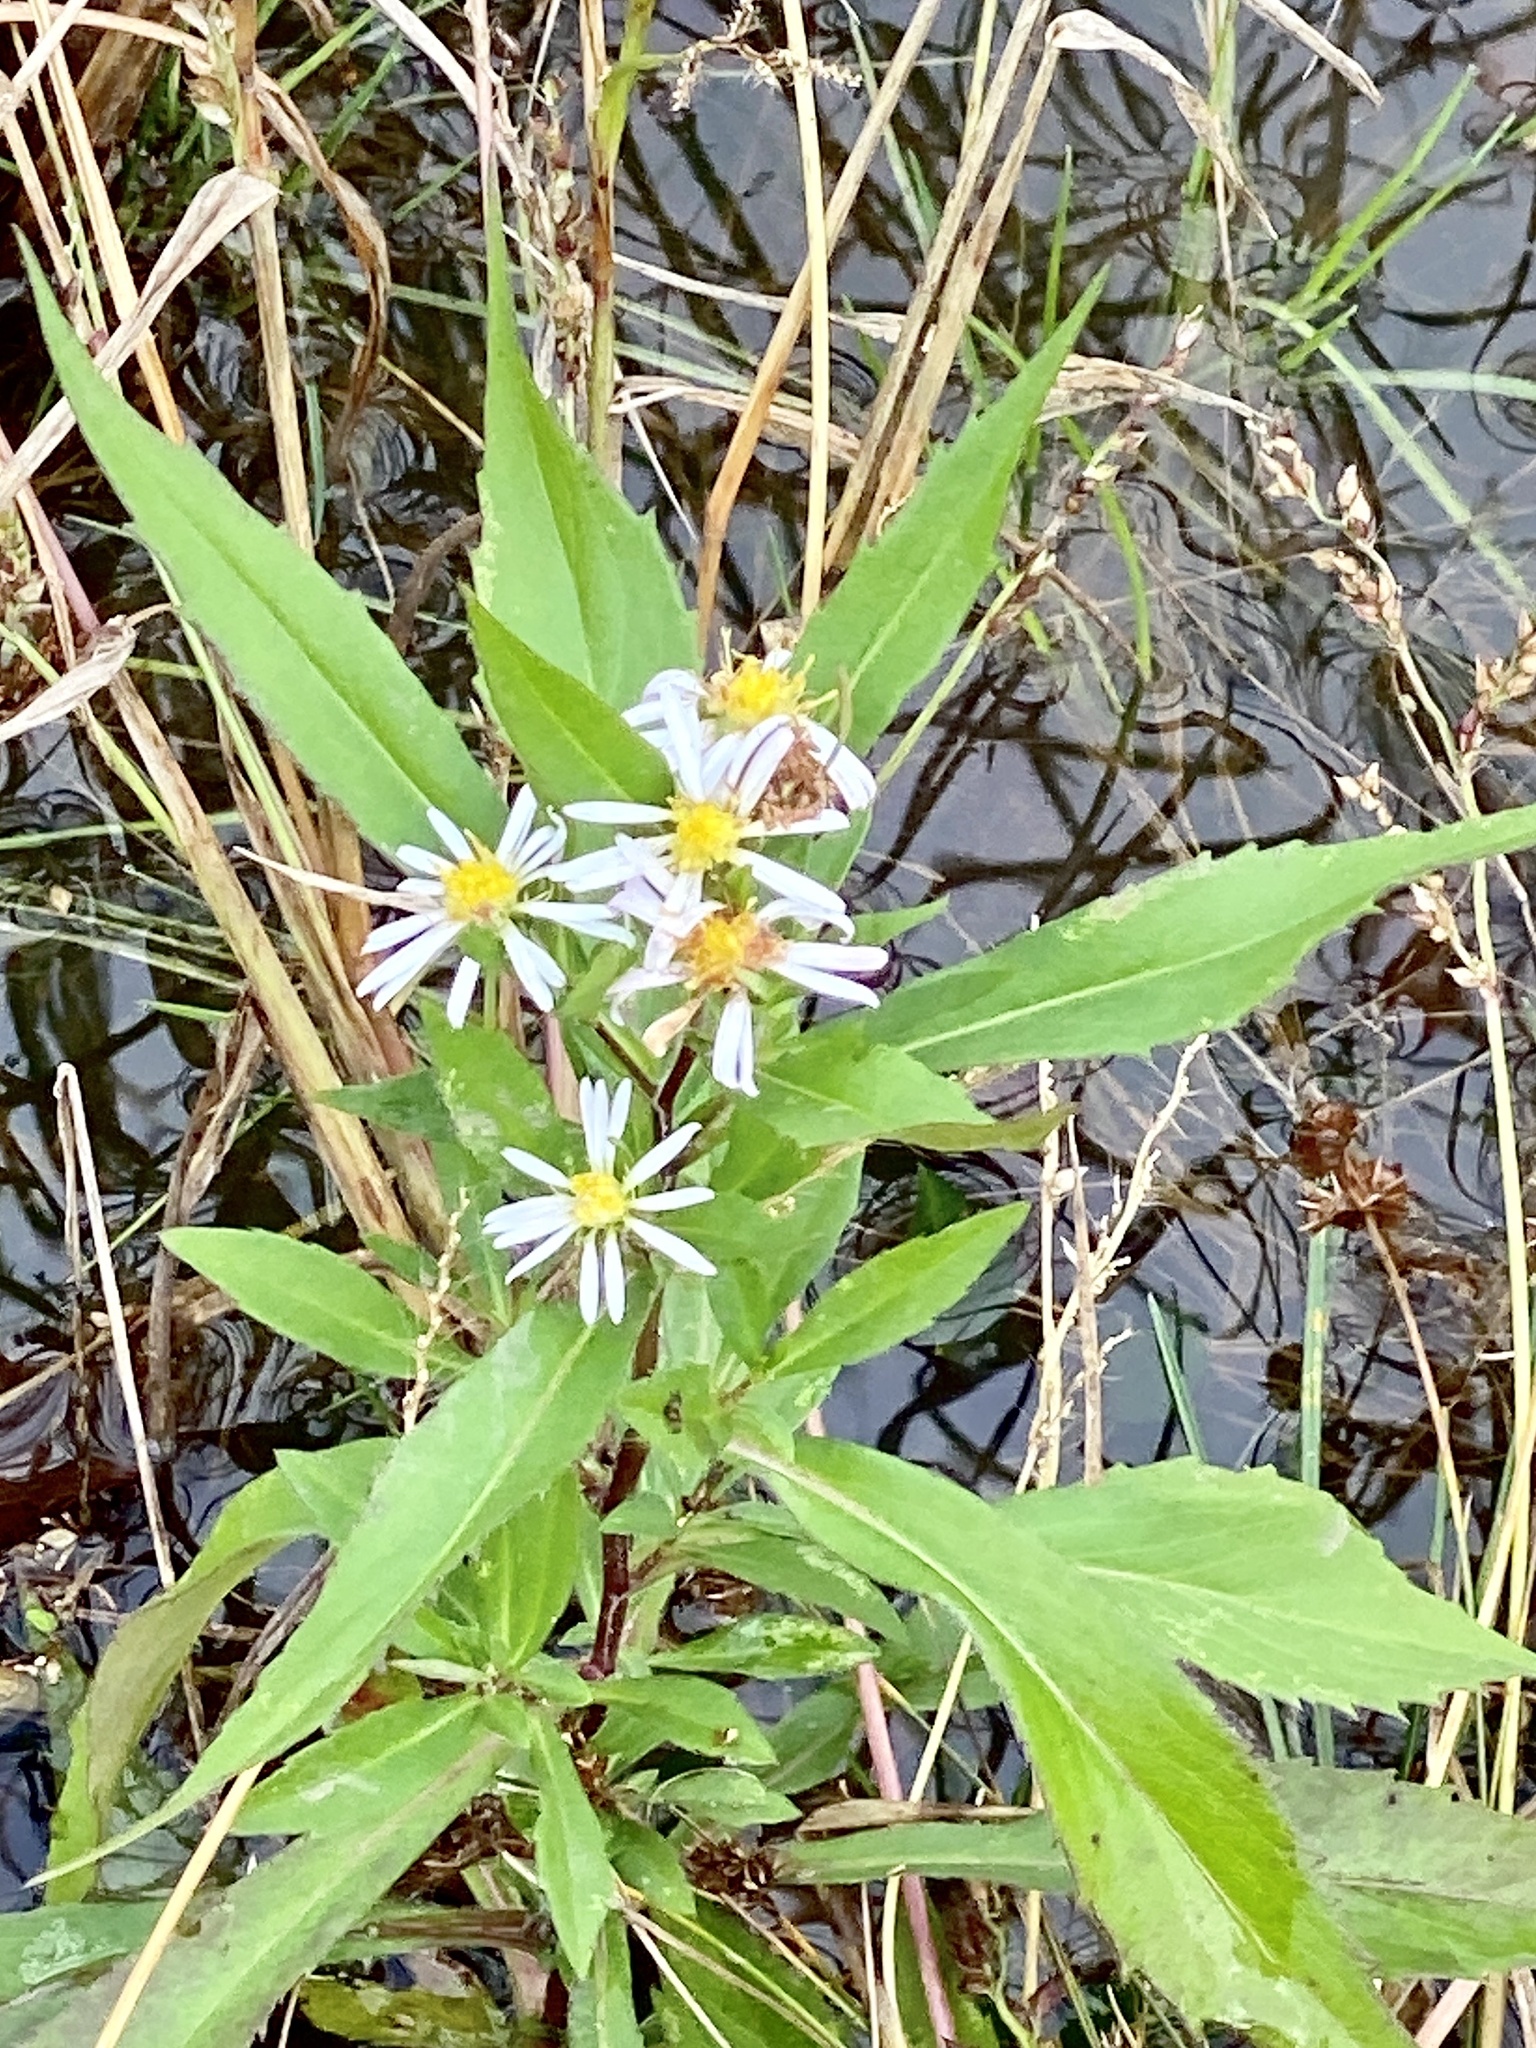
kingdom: Plantae
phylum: Tracheophyta
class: Magnoliopsida
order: Asterales
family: Asteraceae
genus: Symphyotrichum
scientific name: Symphyotrichum puniceum
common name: Bog aster
